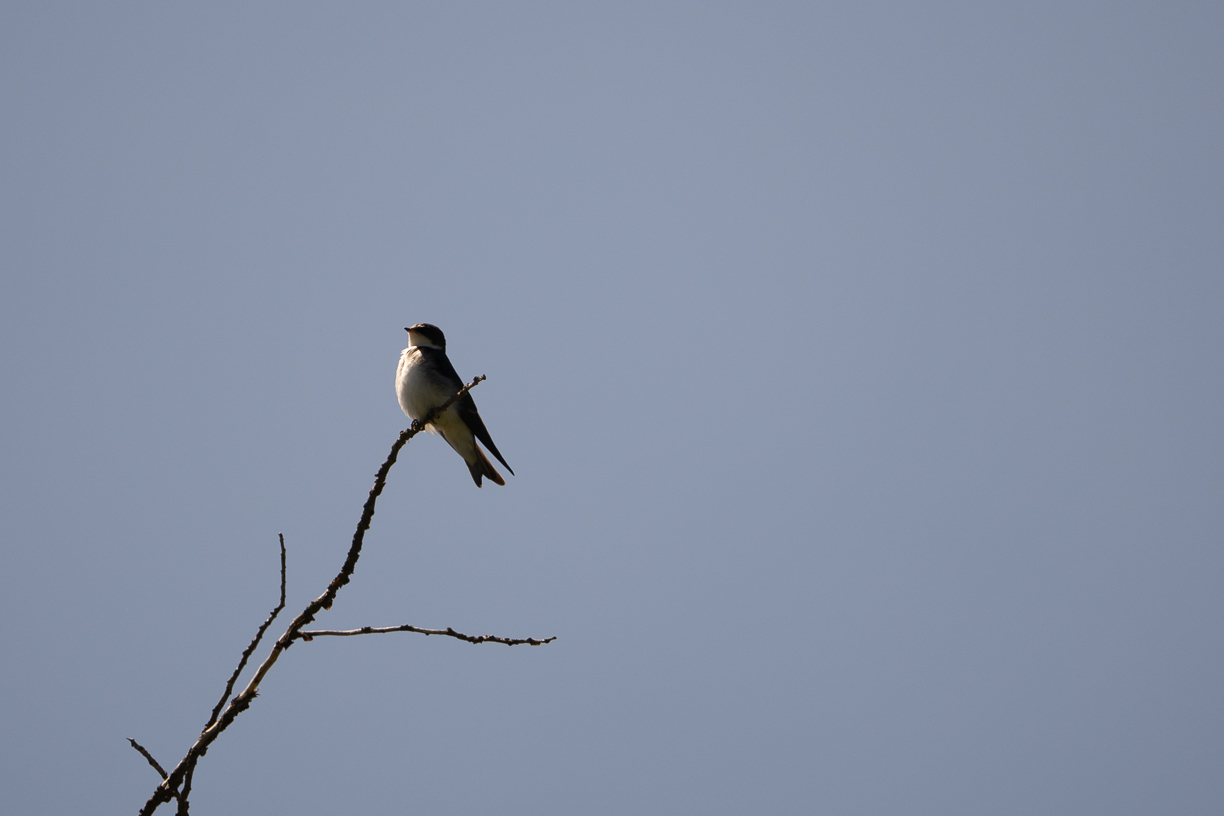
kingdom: Animalia
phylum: Chordata
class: Aves
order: Passeriformes
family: Hirundinidae
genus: Tachycineta
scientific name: Tachycineta leucopyga
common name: Chilean swallow
